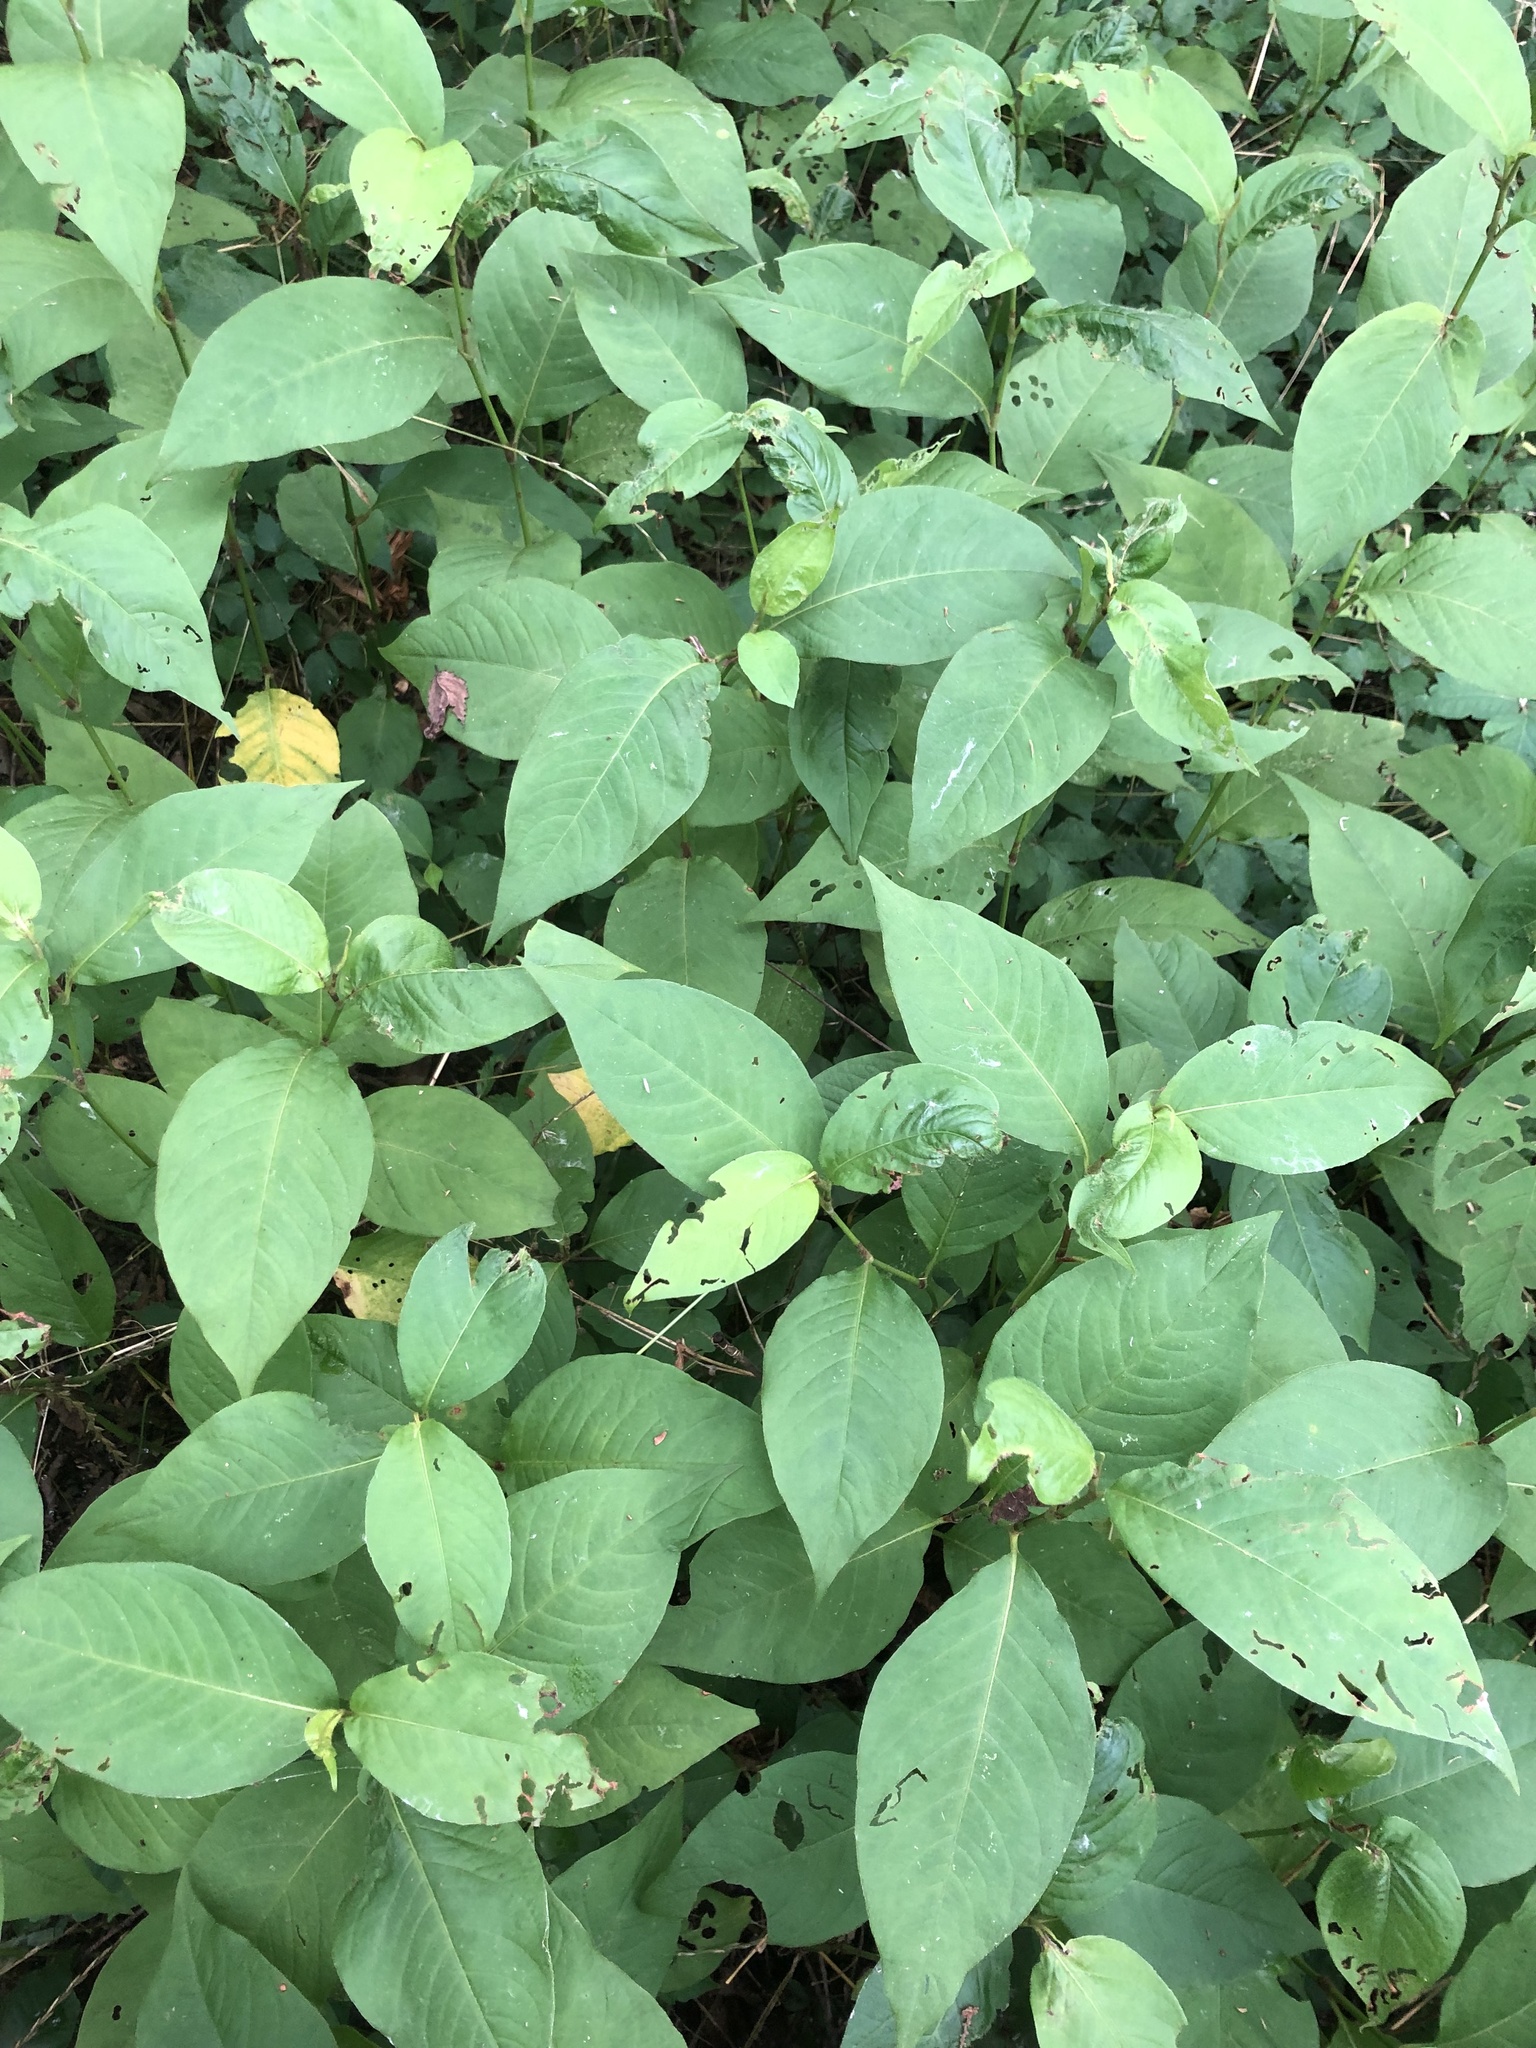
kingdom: Plantae
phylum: Tracheophyta
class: Magnoliopsida
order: Caryophyllales
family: Polygonaceae
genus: Persicaria
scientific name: Persicaria virginiana
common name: Jumpseed
